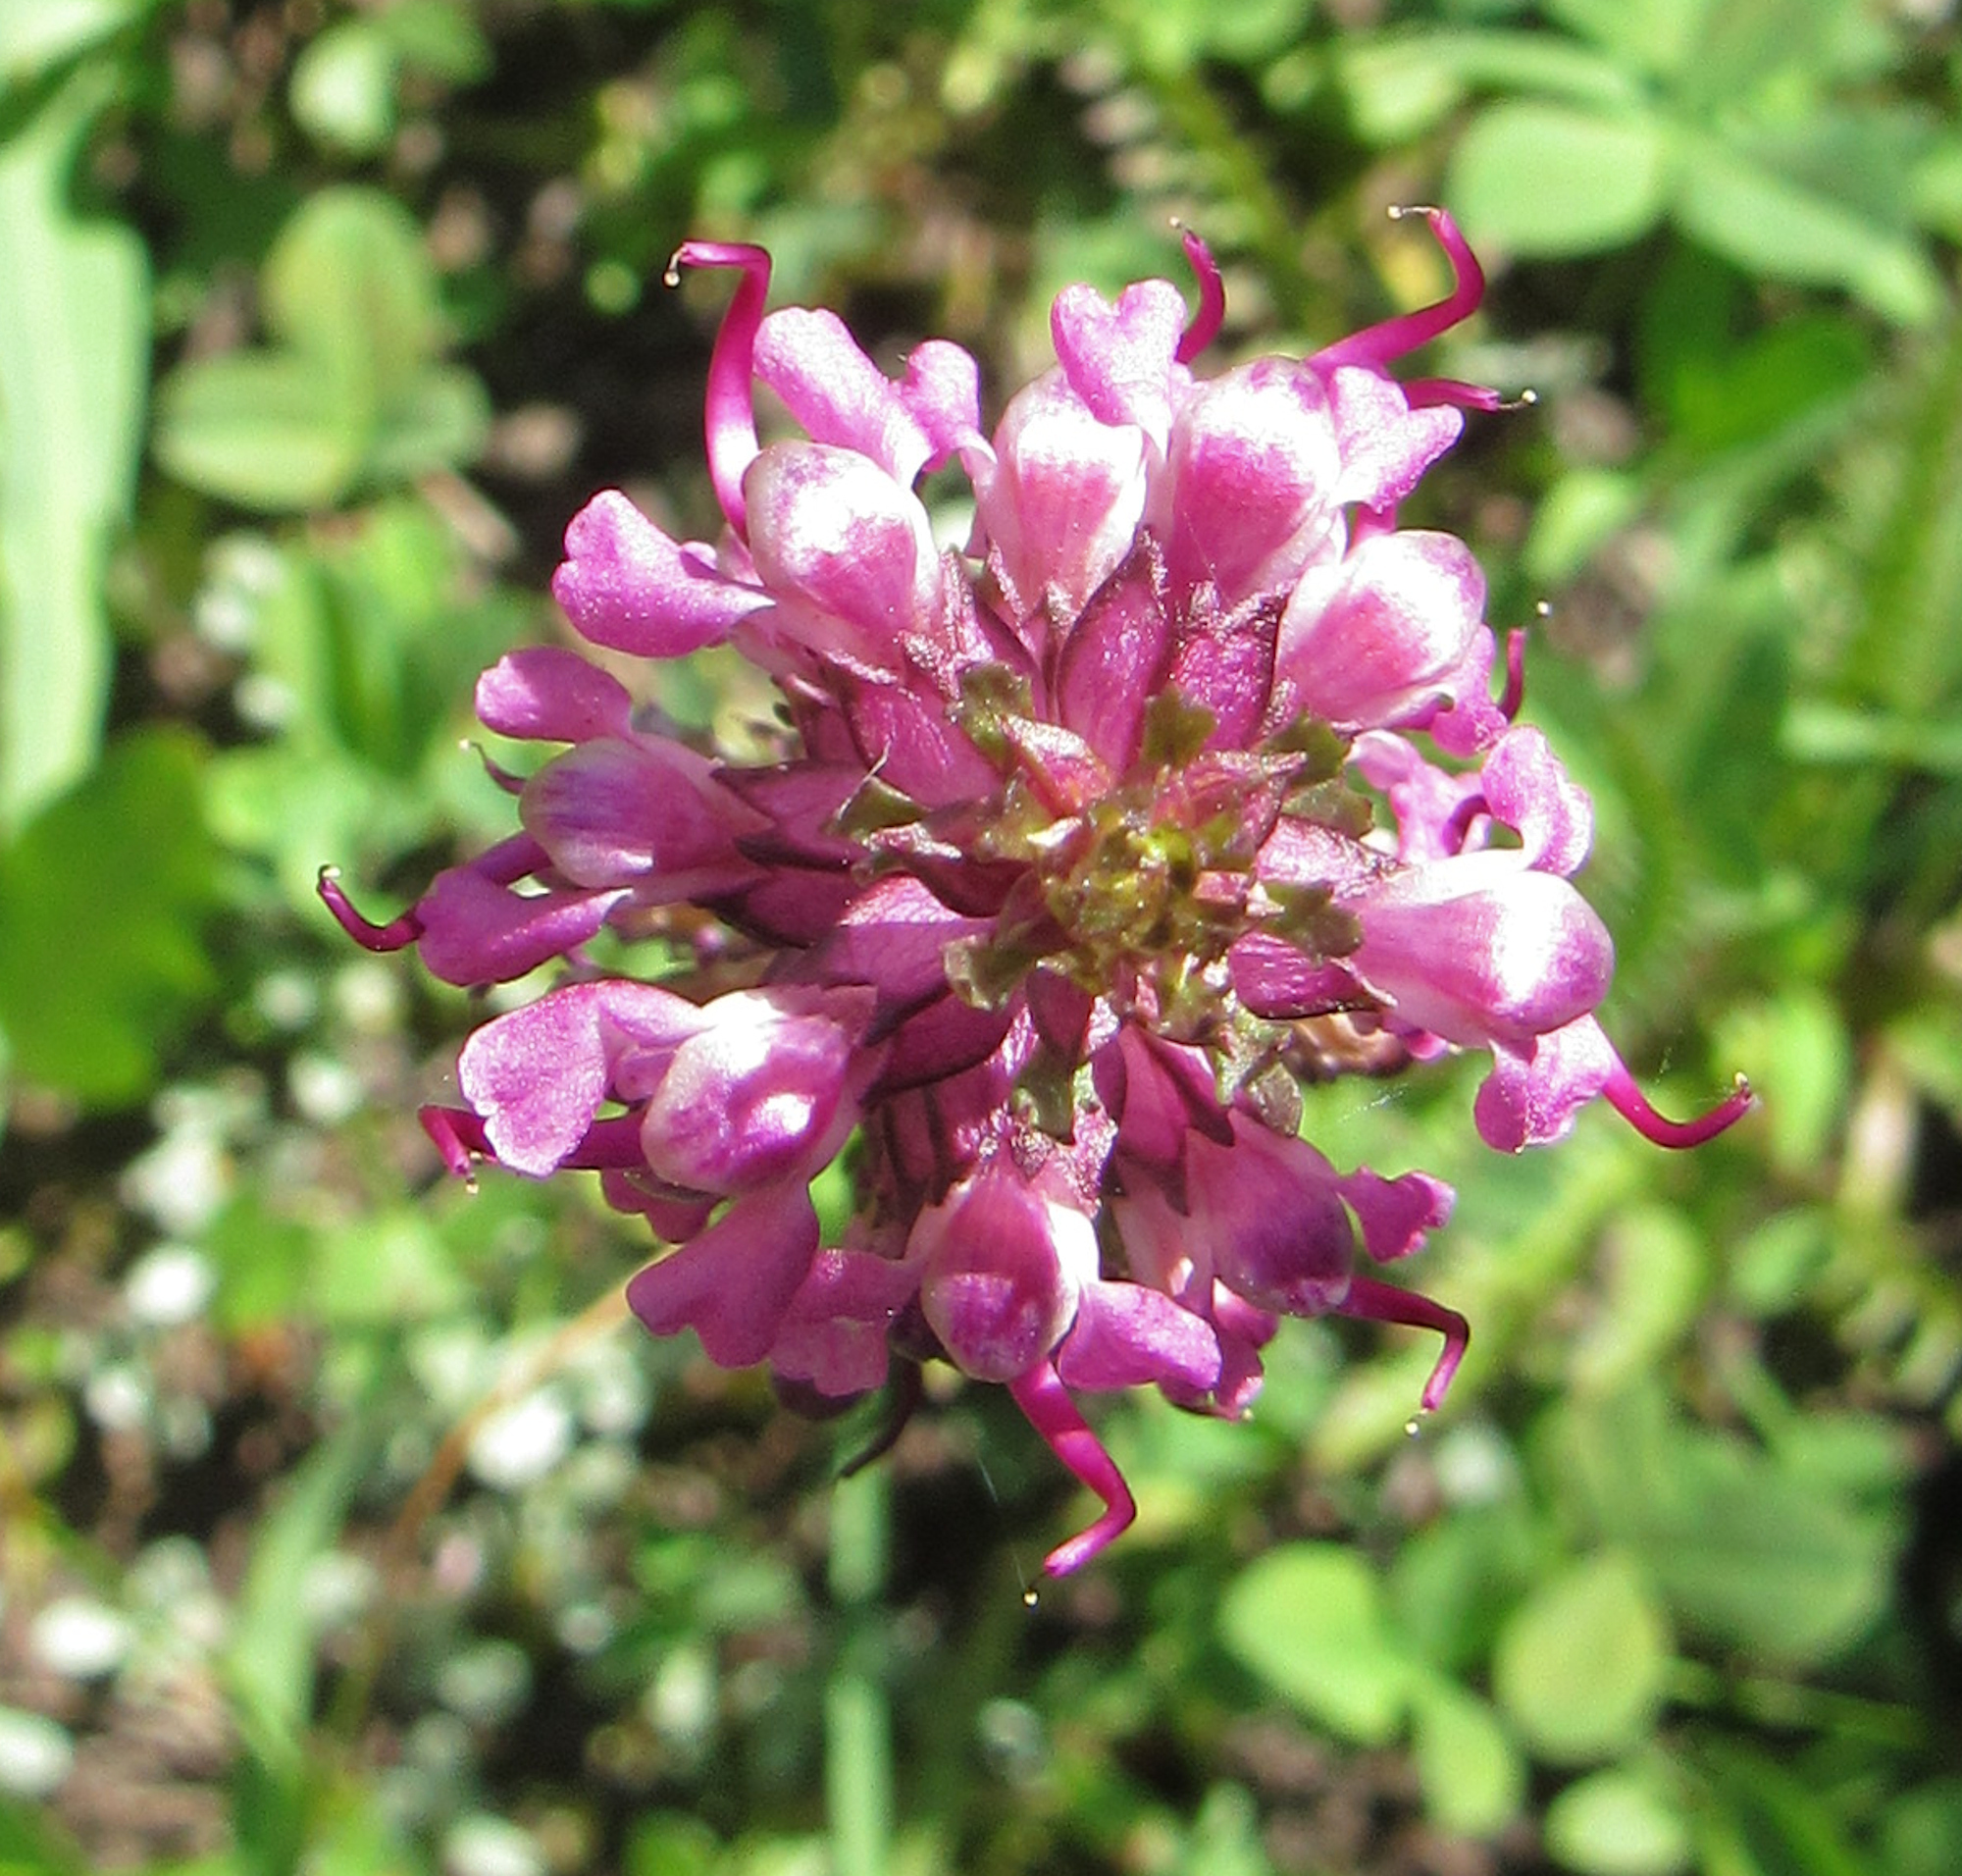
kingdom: Plantae
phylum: Tracheophyta
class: Magnoliopsida
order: Lamiales
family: Orobanchaceae
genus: Pedicularis
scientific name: Pedicularis groenlandica
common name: Elephant's-head
